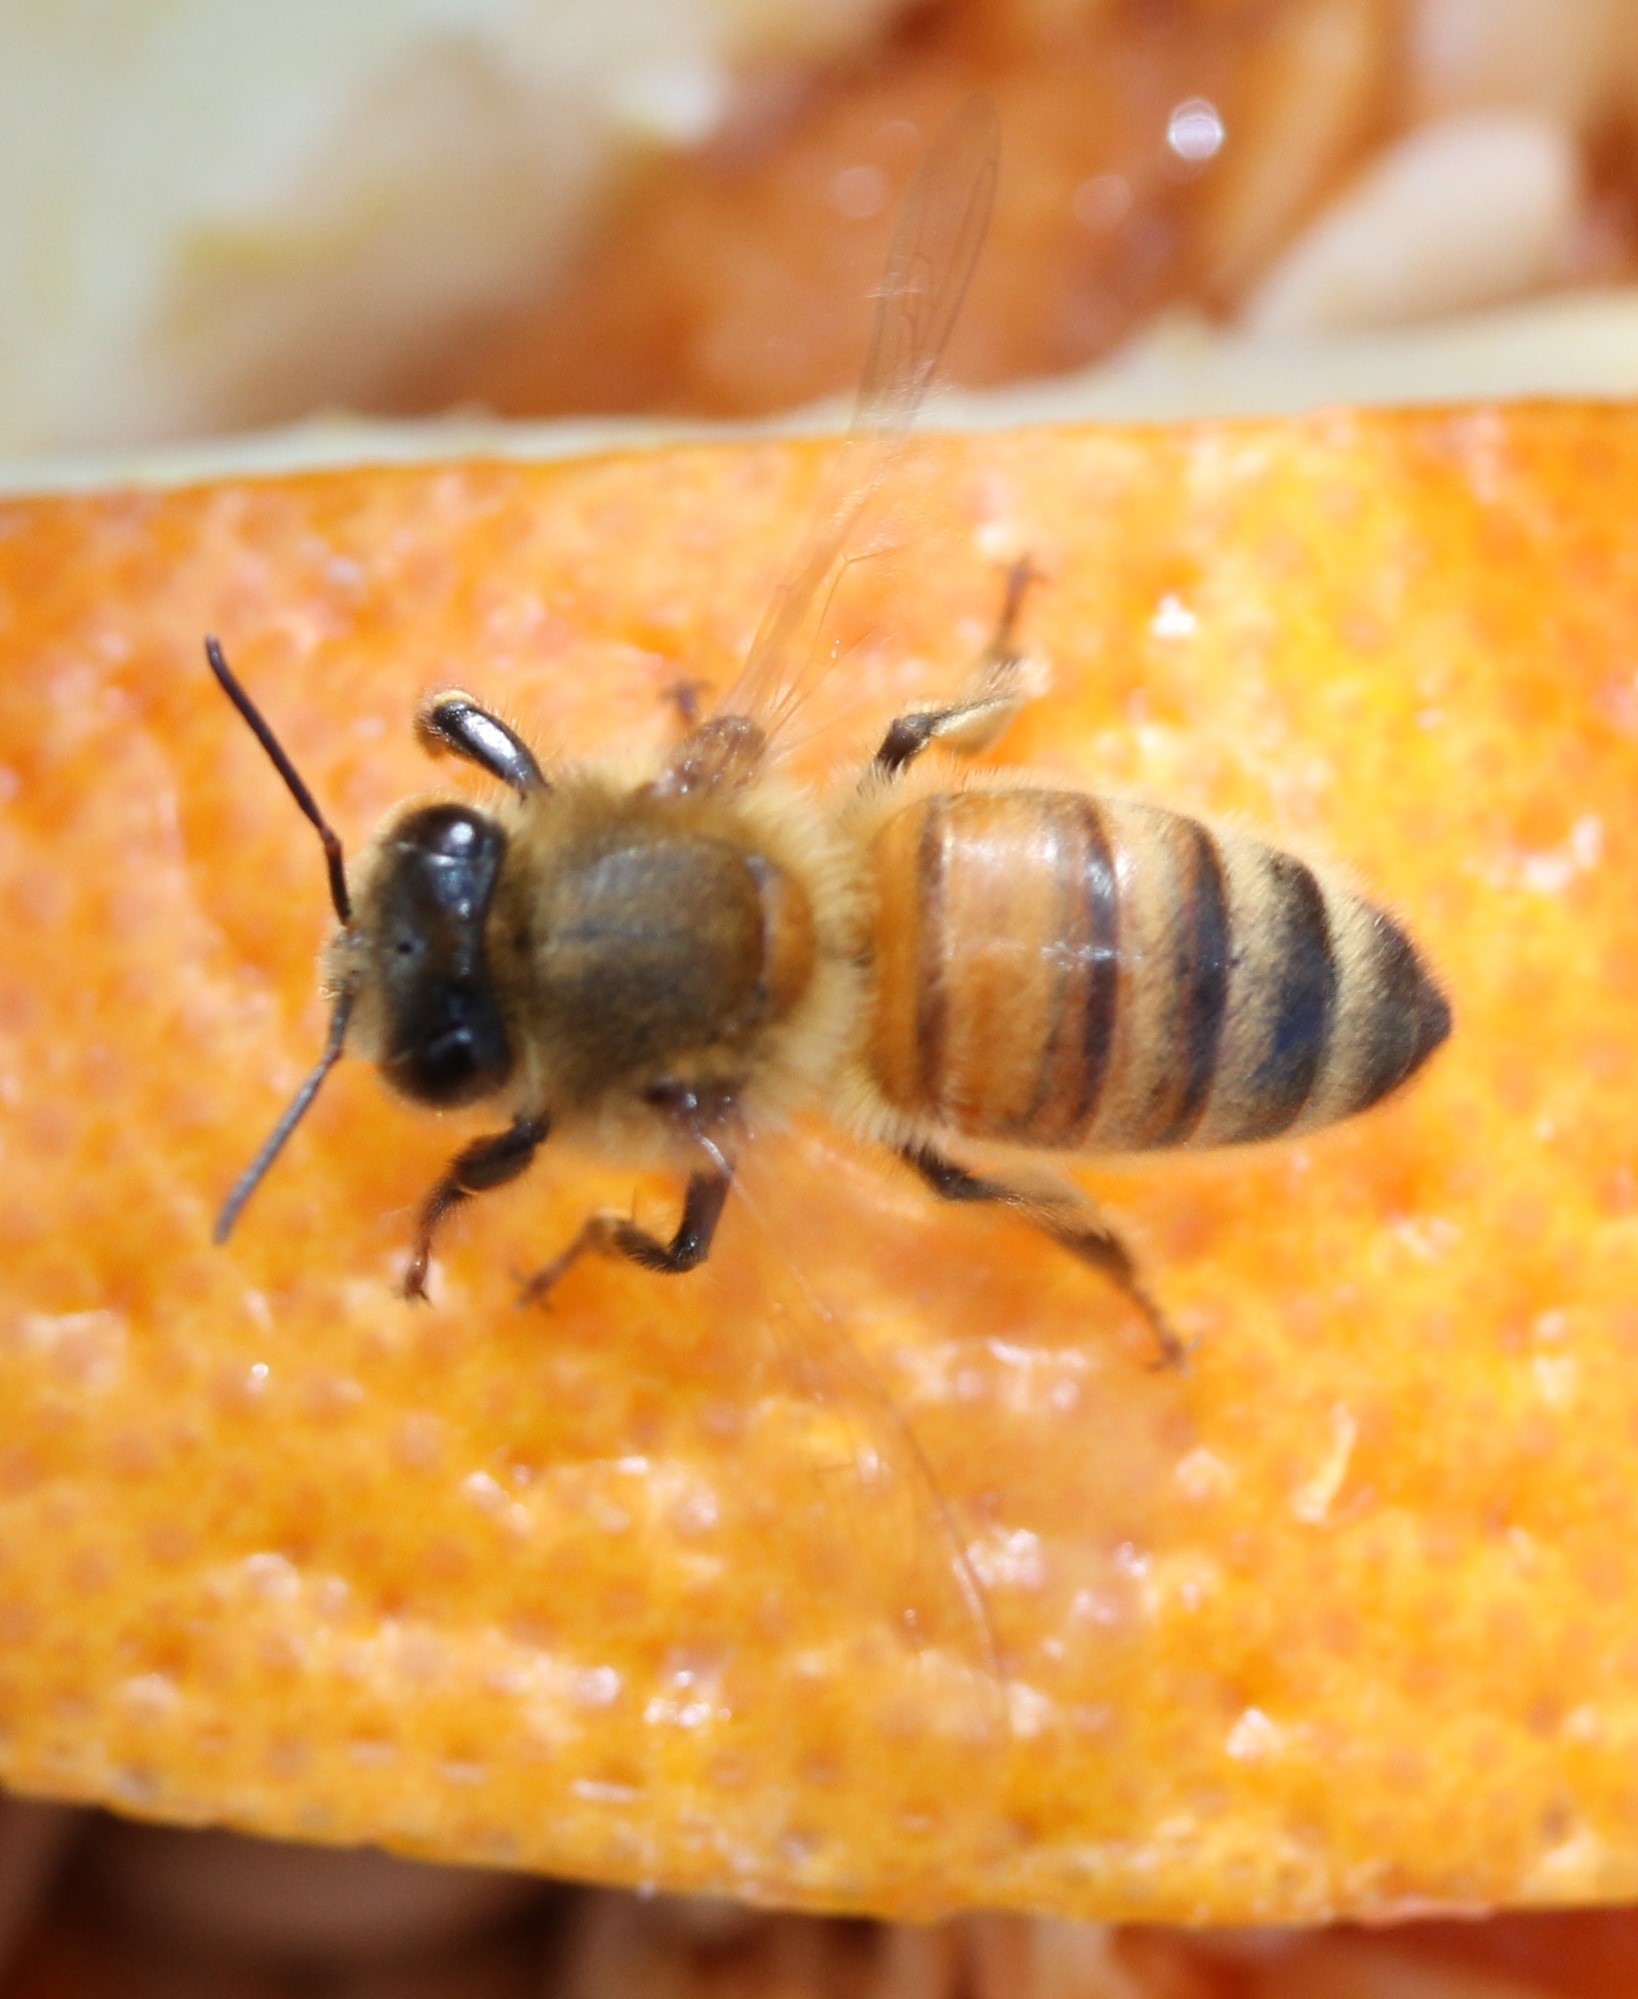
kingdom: Animalia
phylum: Arthropoda
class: Insecta
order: Hymenoptera
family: Apidae
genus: Apis
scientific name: Apis mellifera
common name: Honey bee
